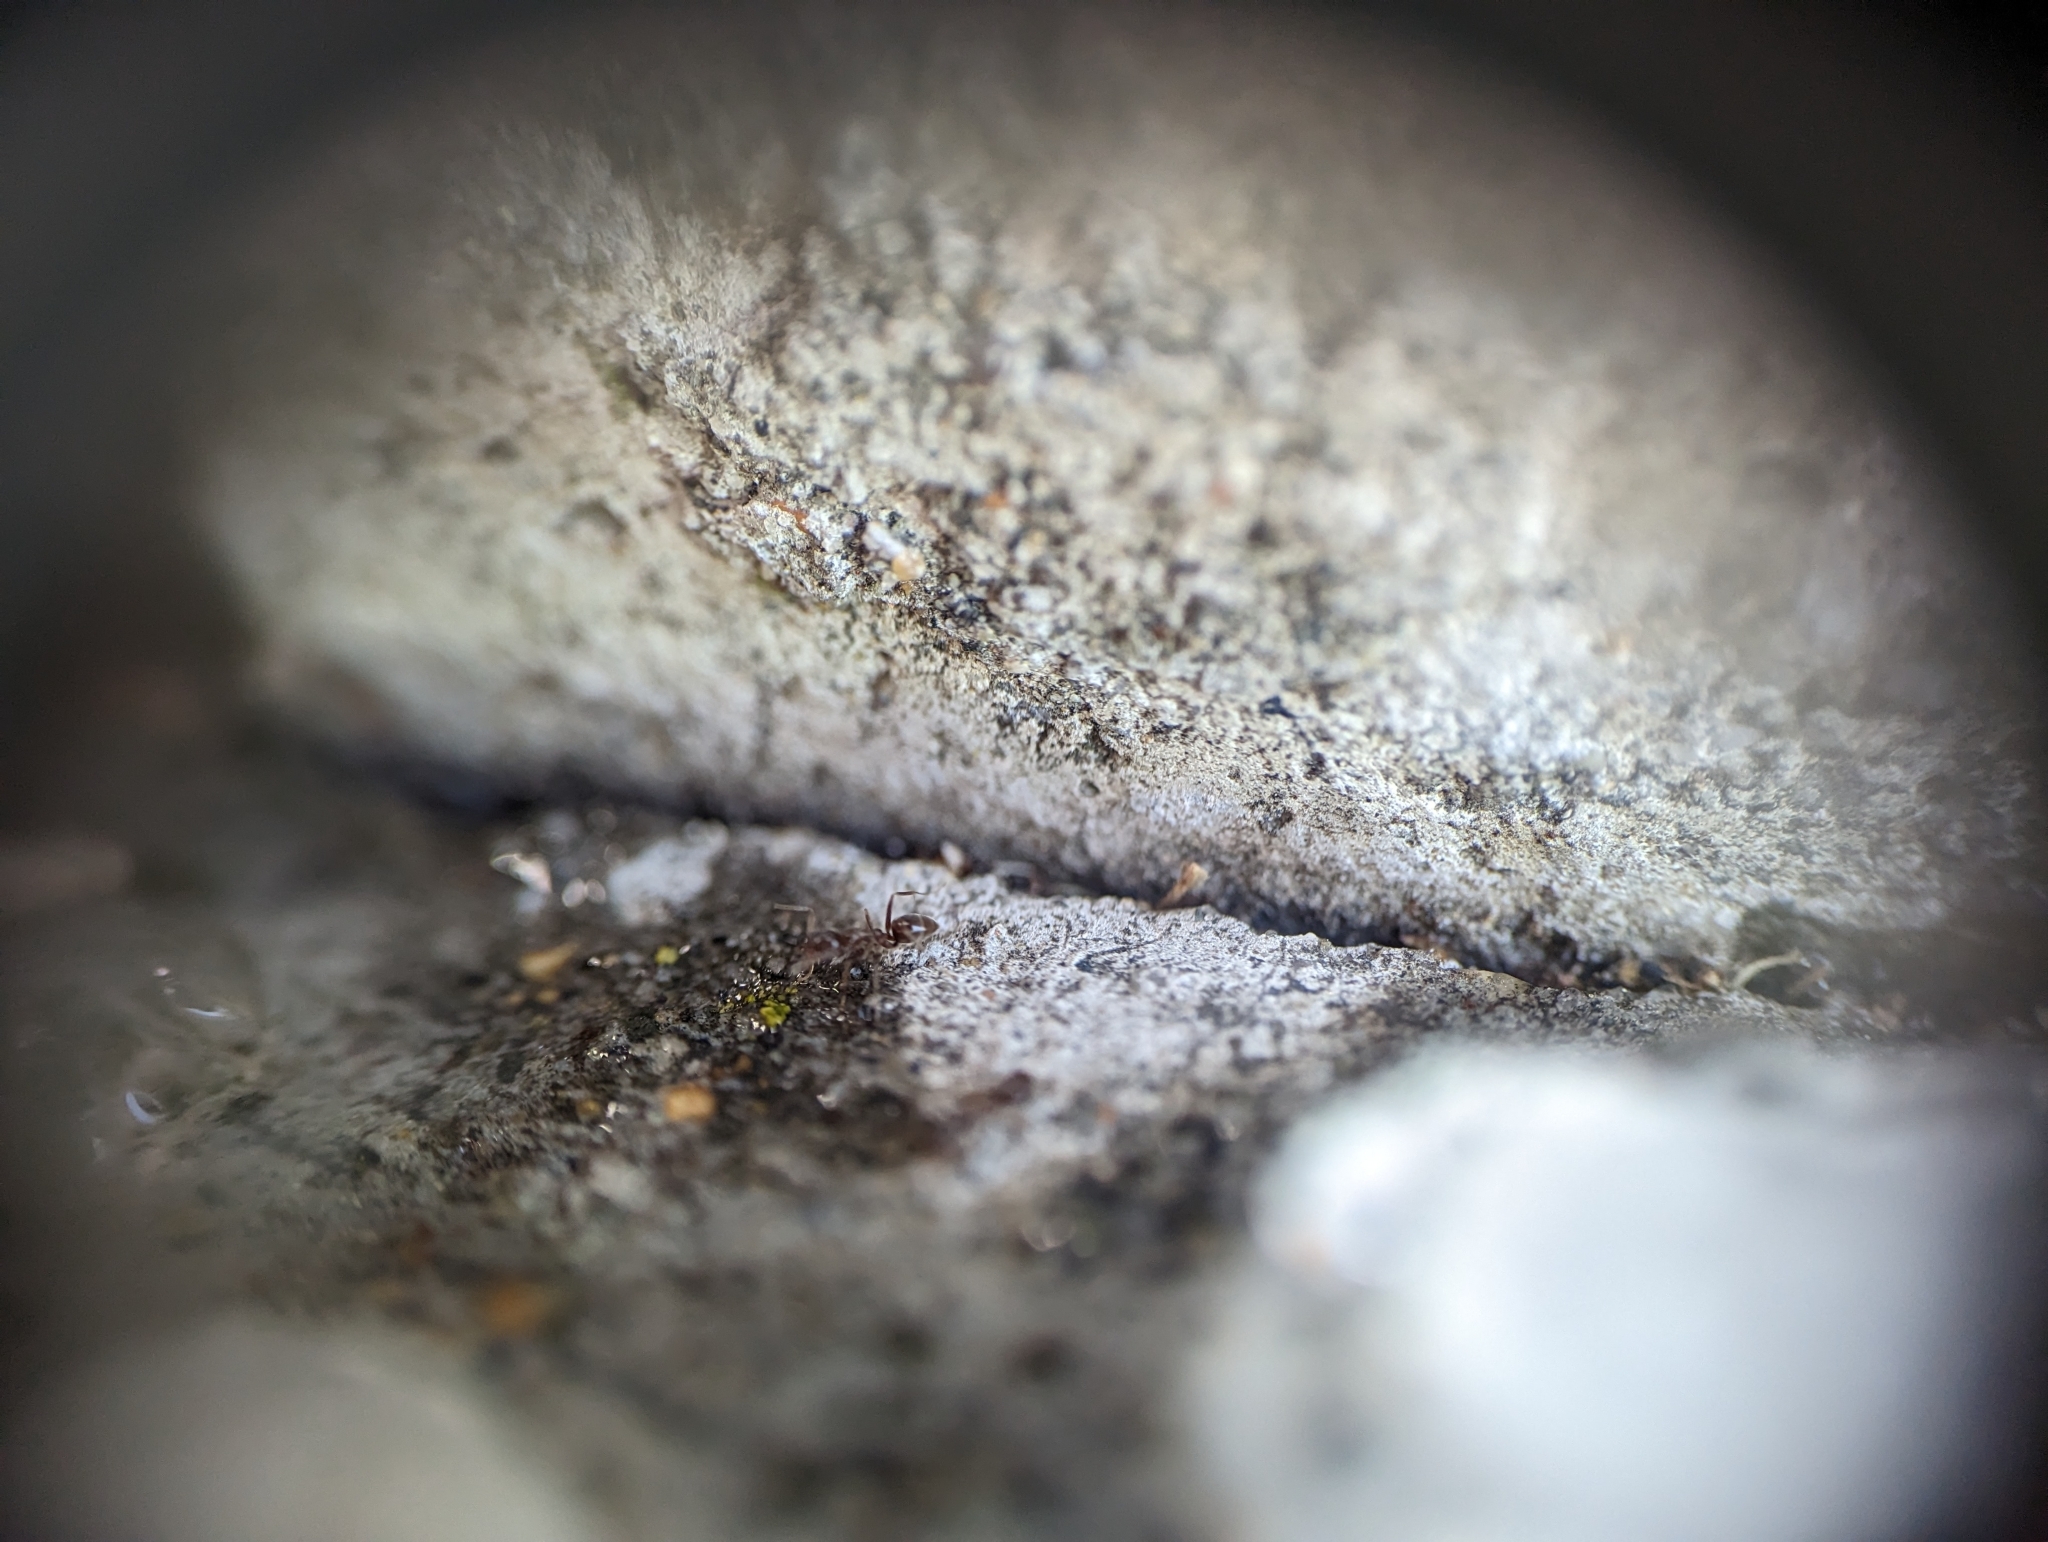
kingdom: Animalia
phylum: Arthropoda
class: Insecta
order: Hymenoptera
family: Formicidae
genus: Linepithema
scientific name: Linepithema humile
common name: Argentine ant
